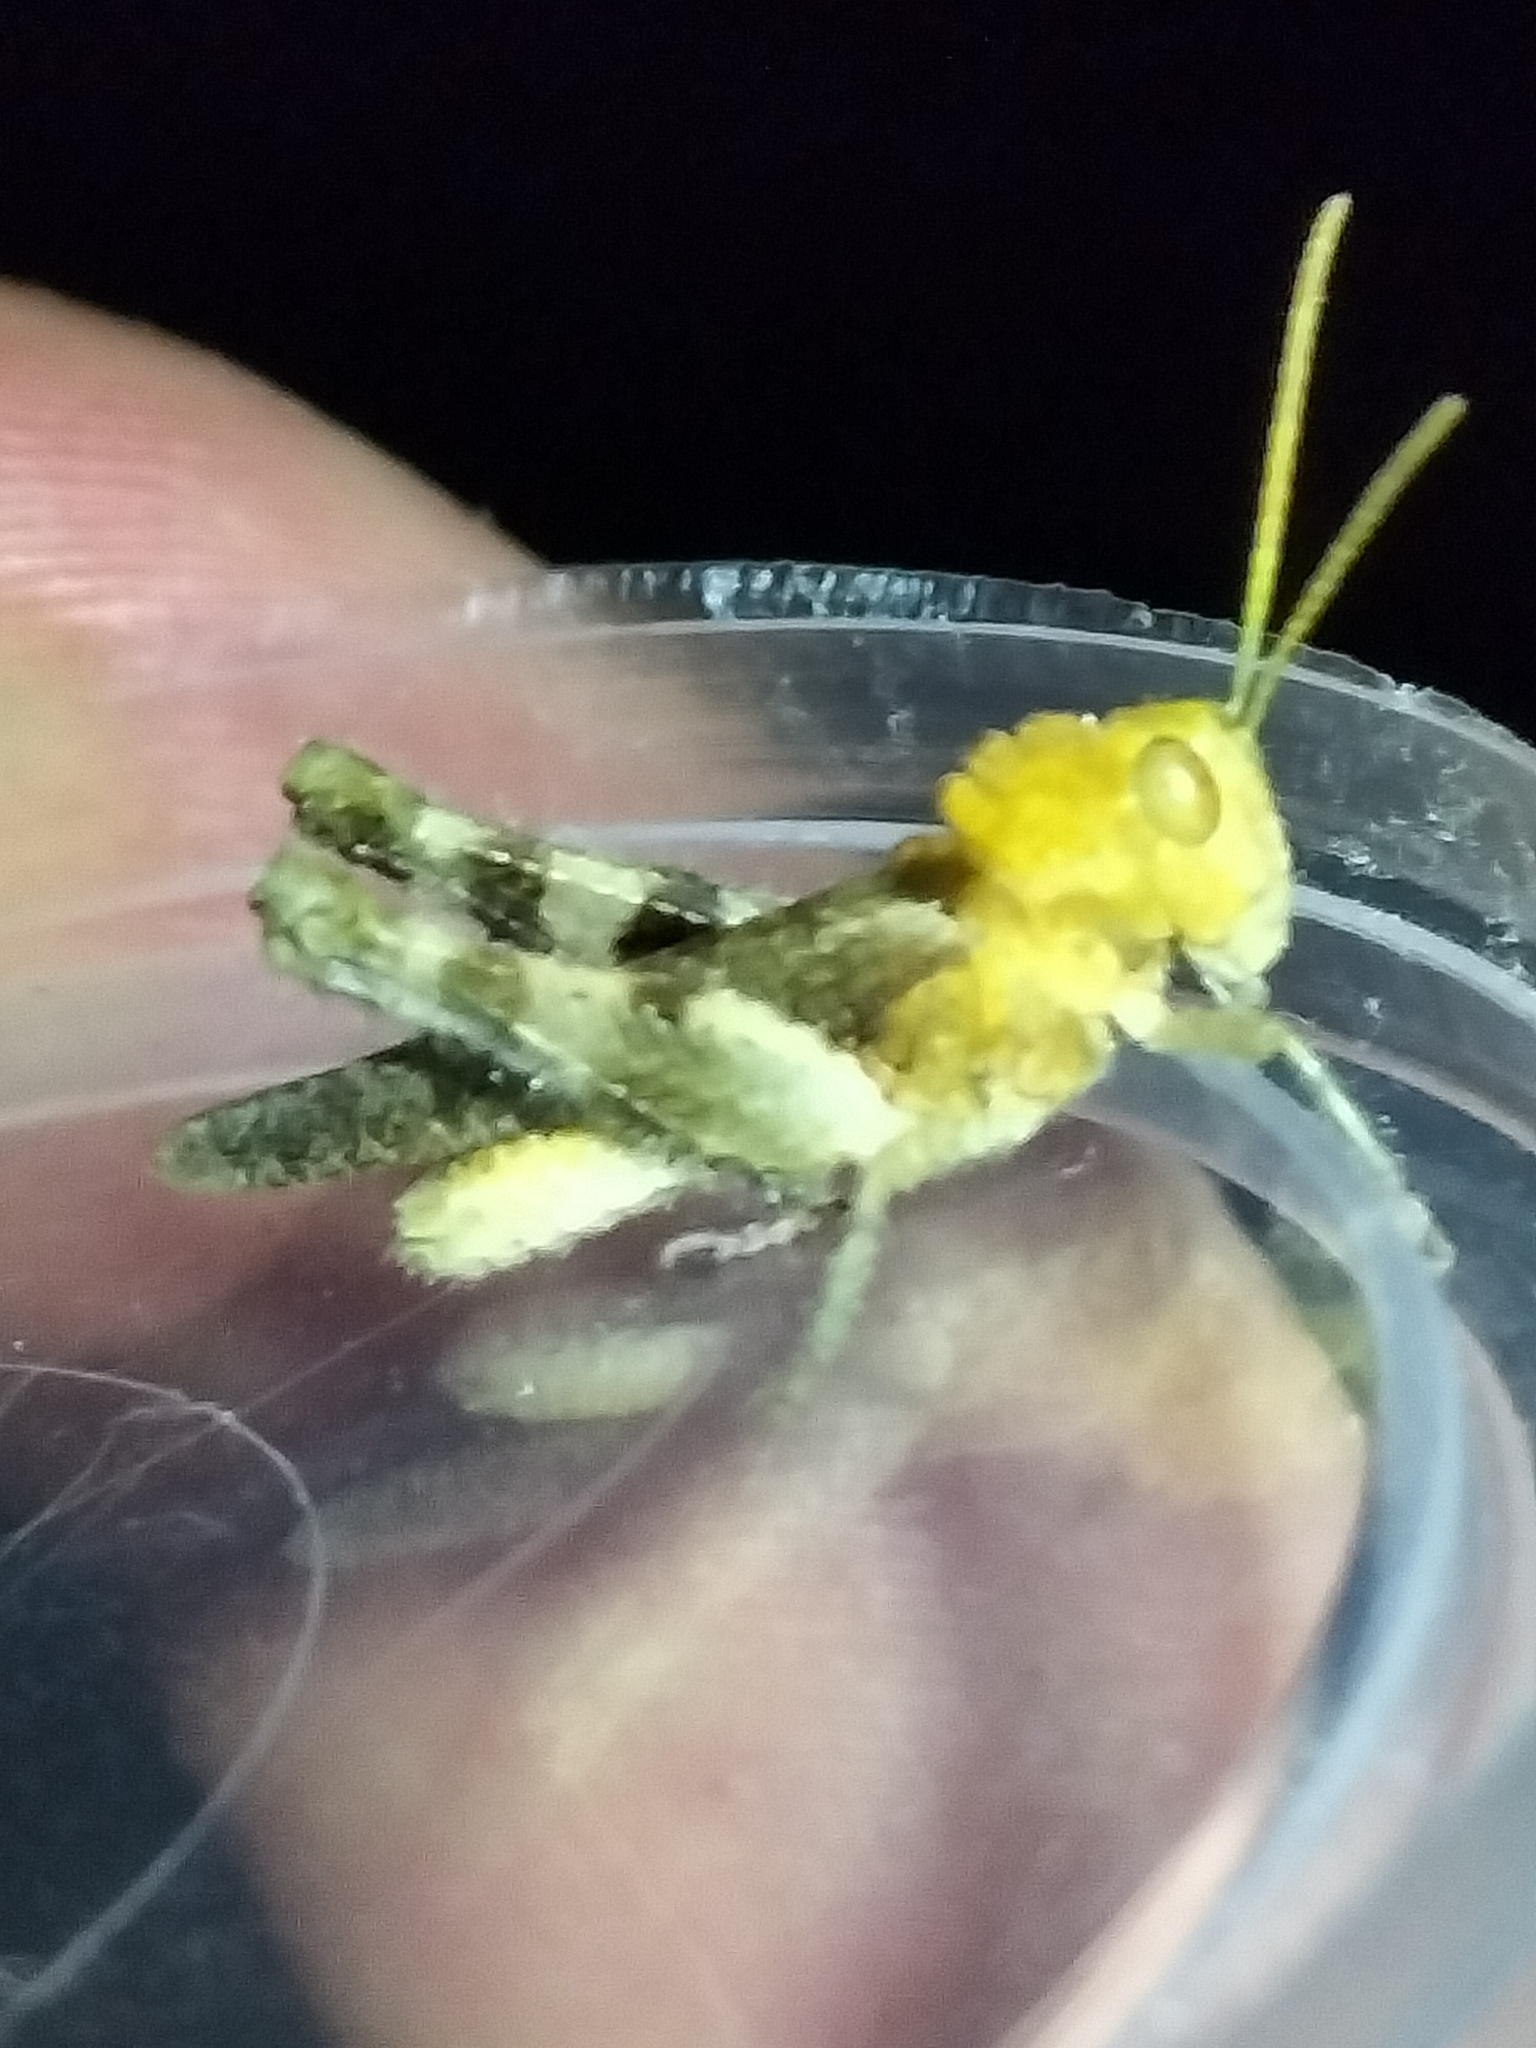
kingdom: Animalia
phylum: Arthropoda
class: Insecta
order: Orthoptera
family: Acrididae
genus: Ecphantus
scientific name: Ecphantus quadrilobus
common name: Crested tooth grinder
